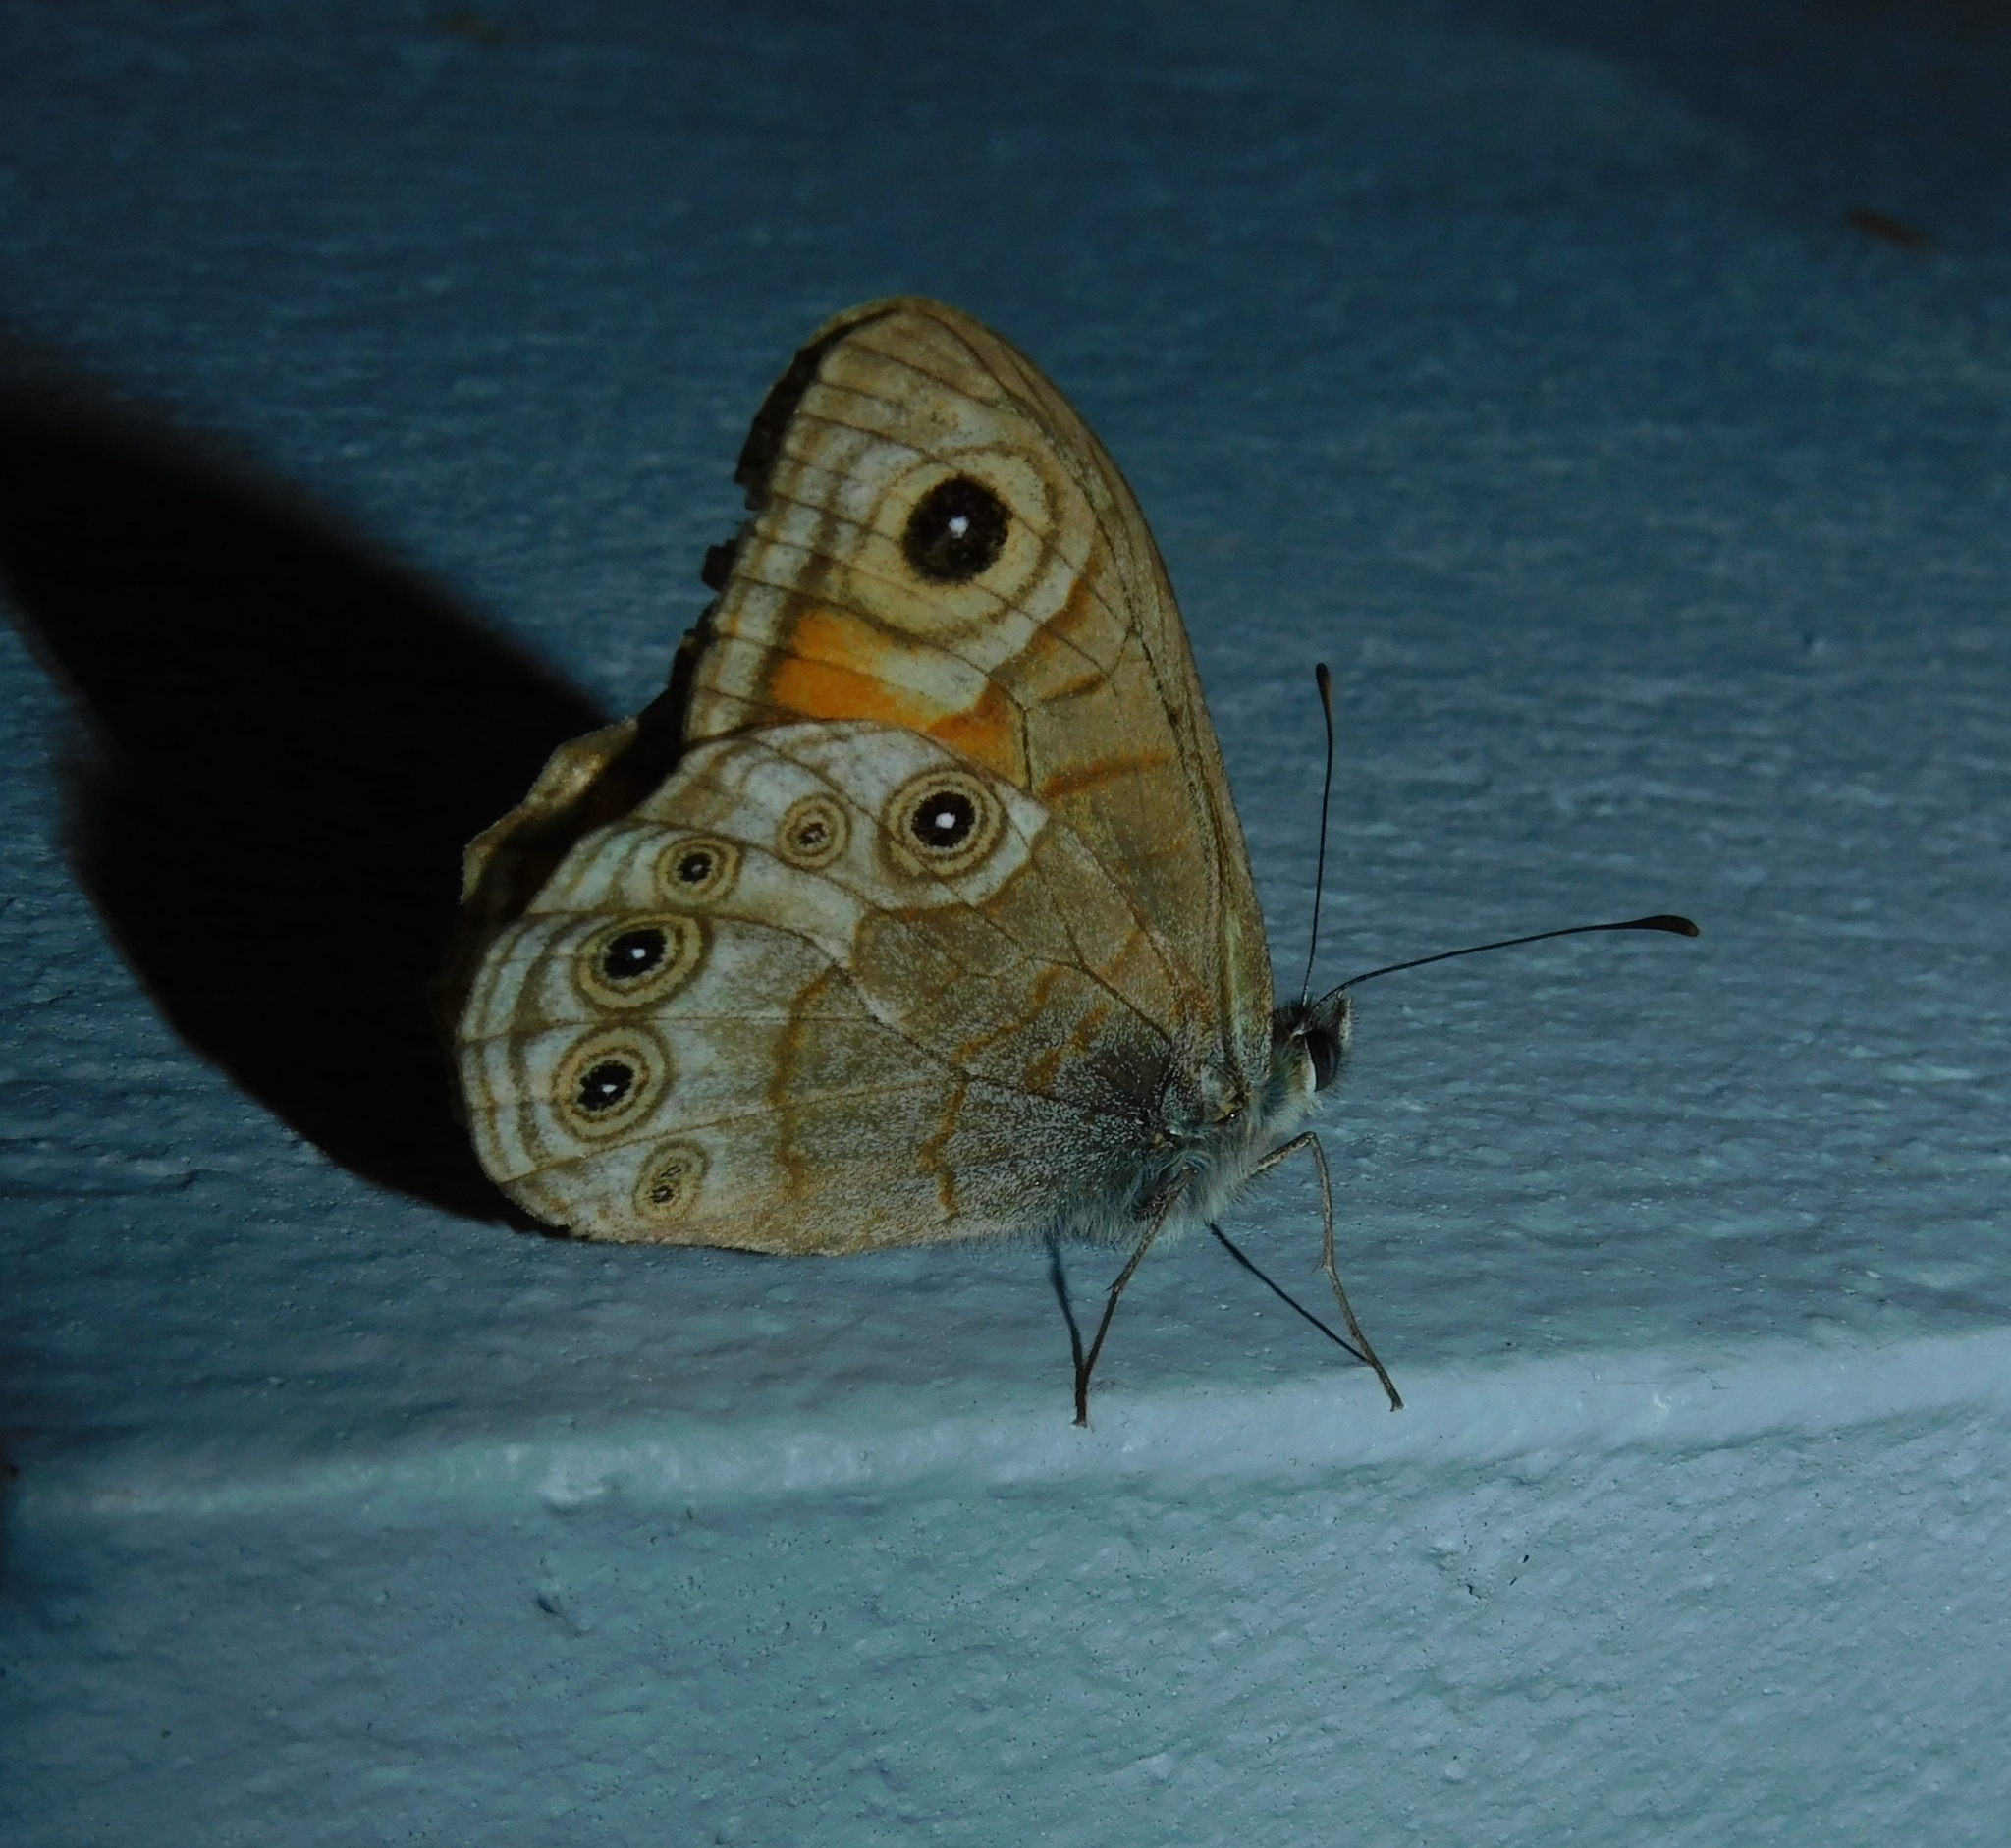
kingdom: Animalia
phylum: Arthropoda
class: Insecta
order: Lepidoptera
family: Nymphalidae
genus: Pararge
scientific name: Pararge Lasiommata schakra
